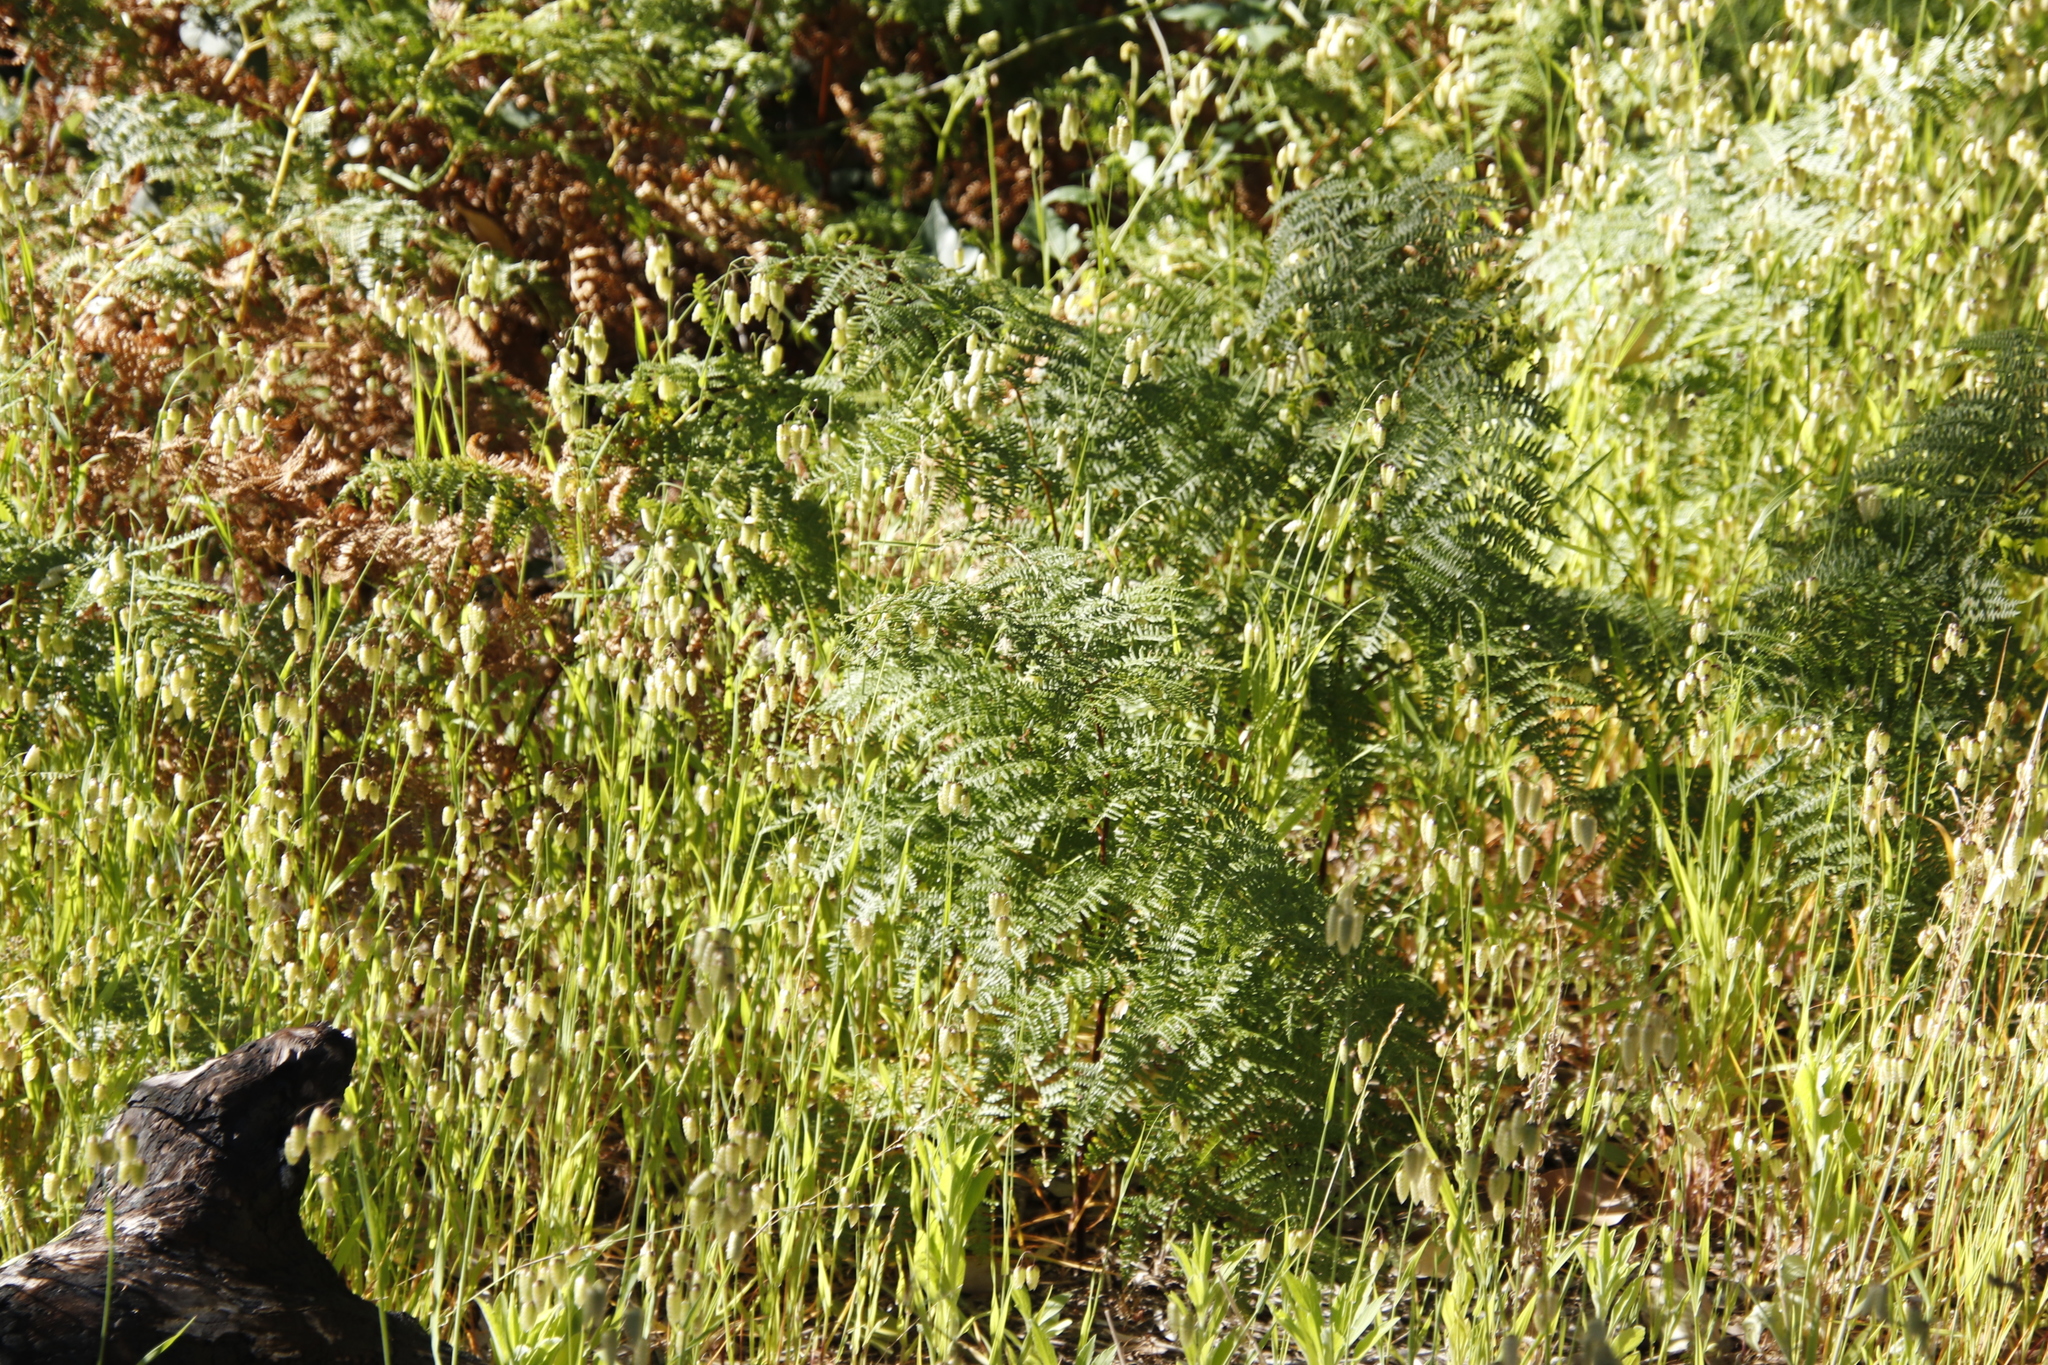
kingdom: Plantae
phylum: Tracheophyta
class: Liliopsida
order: Poales
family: Poaceae
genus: Briza
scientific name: Briza maxima
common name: Big quakinggrass
